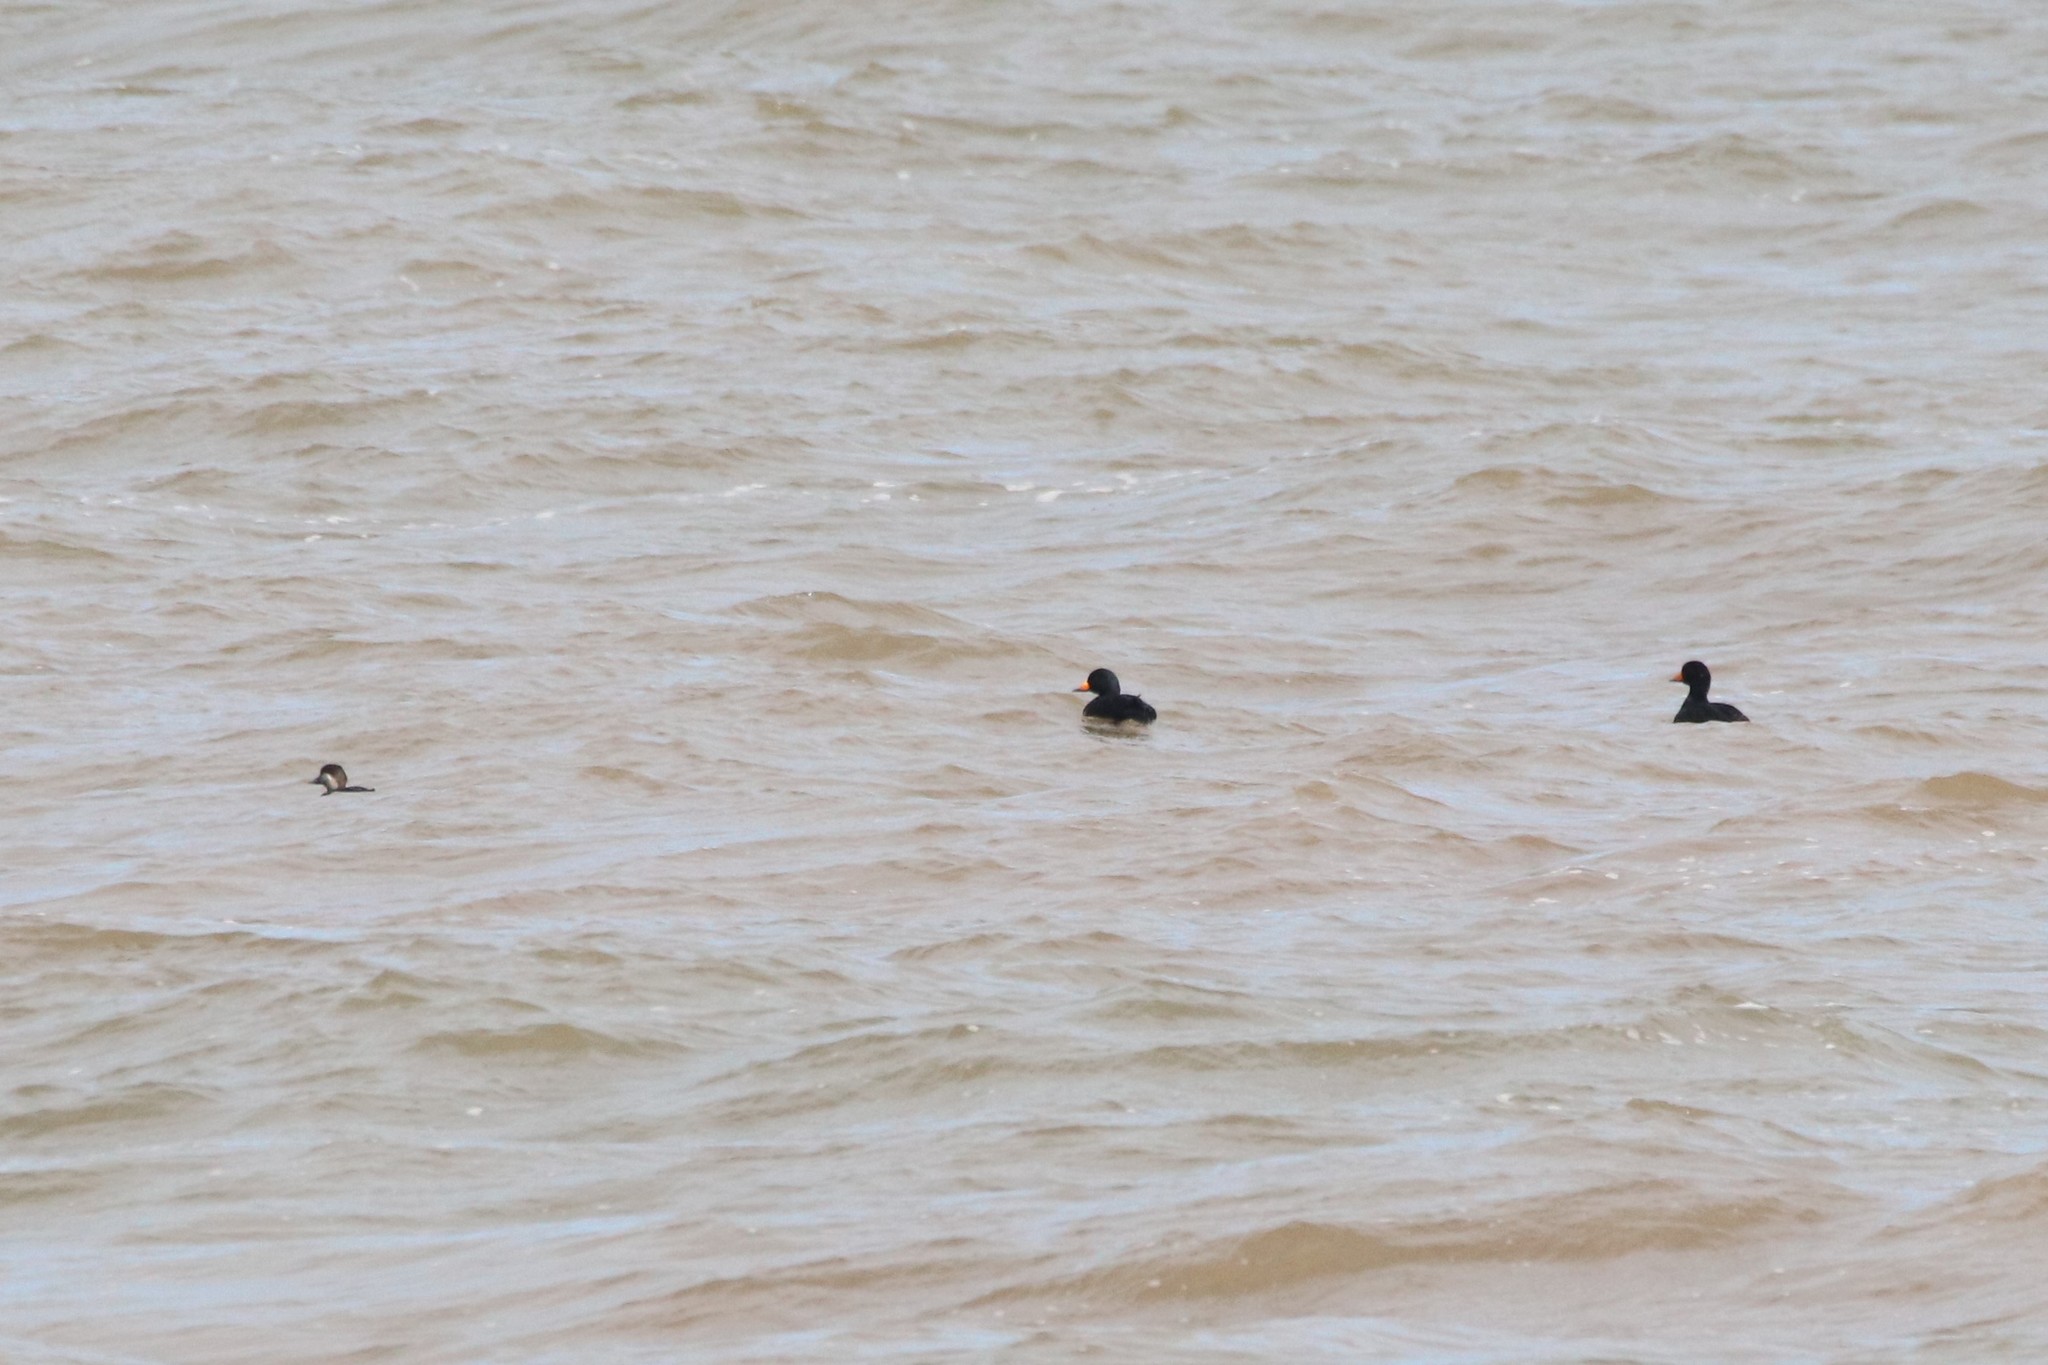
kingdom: Animalia
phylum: Chordata
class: Aves
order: Anseriformes
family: Anatidae
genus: Melanitta
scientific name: Melanitta americana
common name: Black scoter
